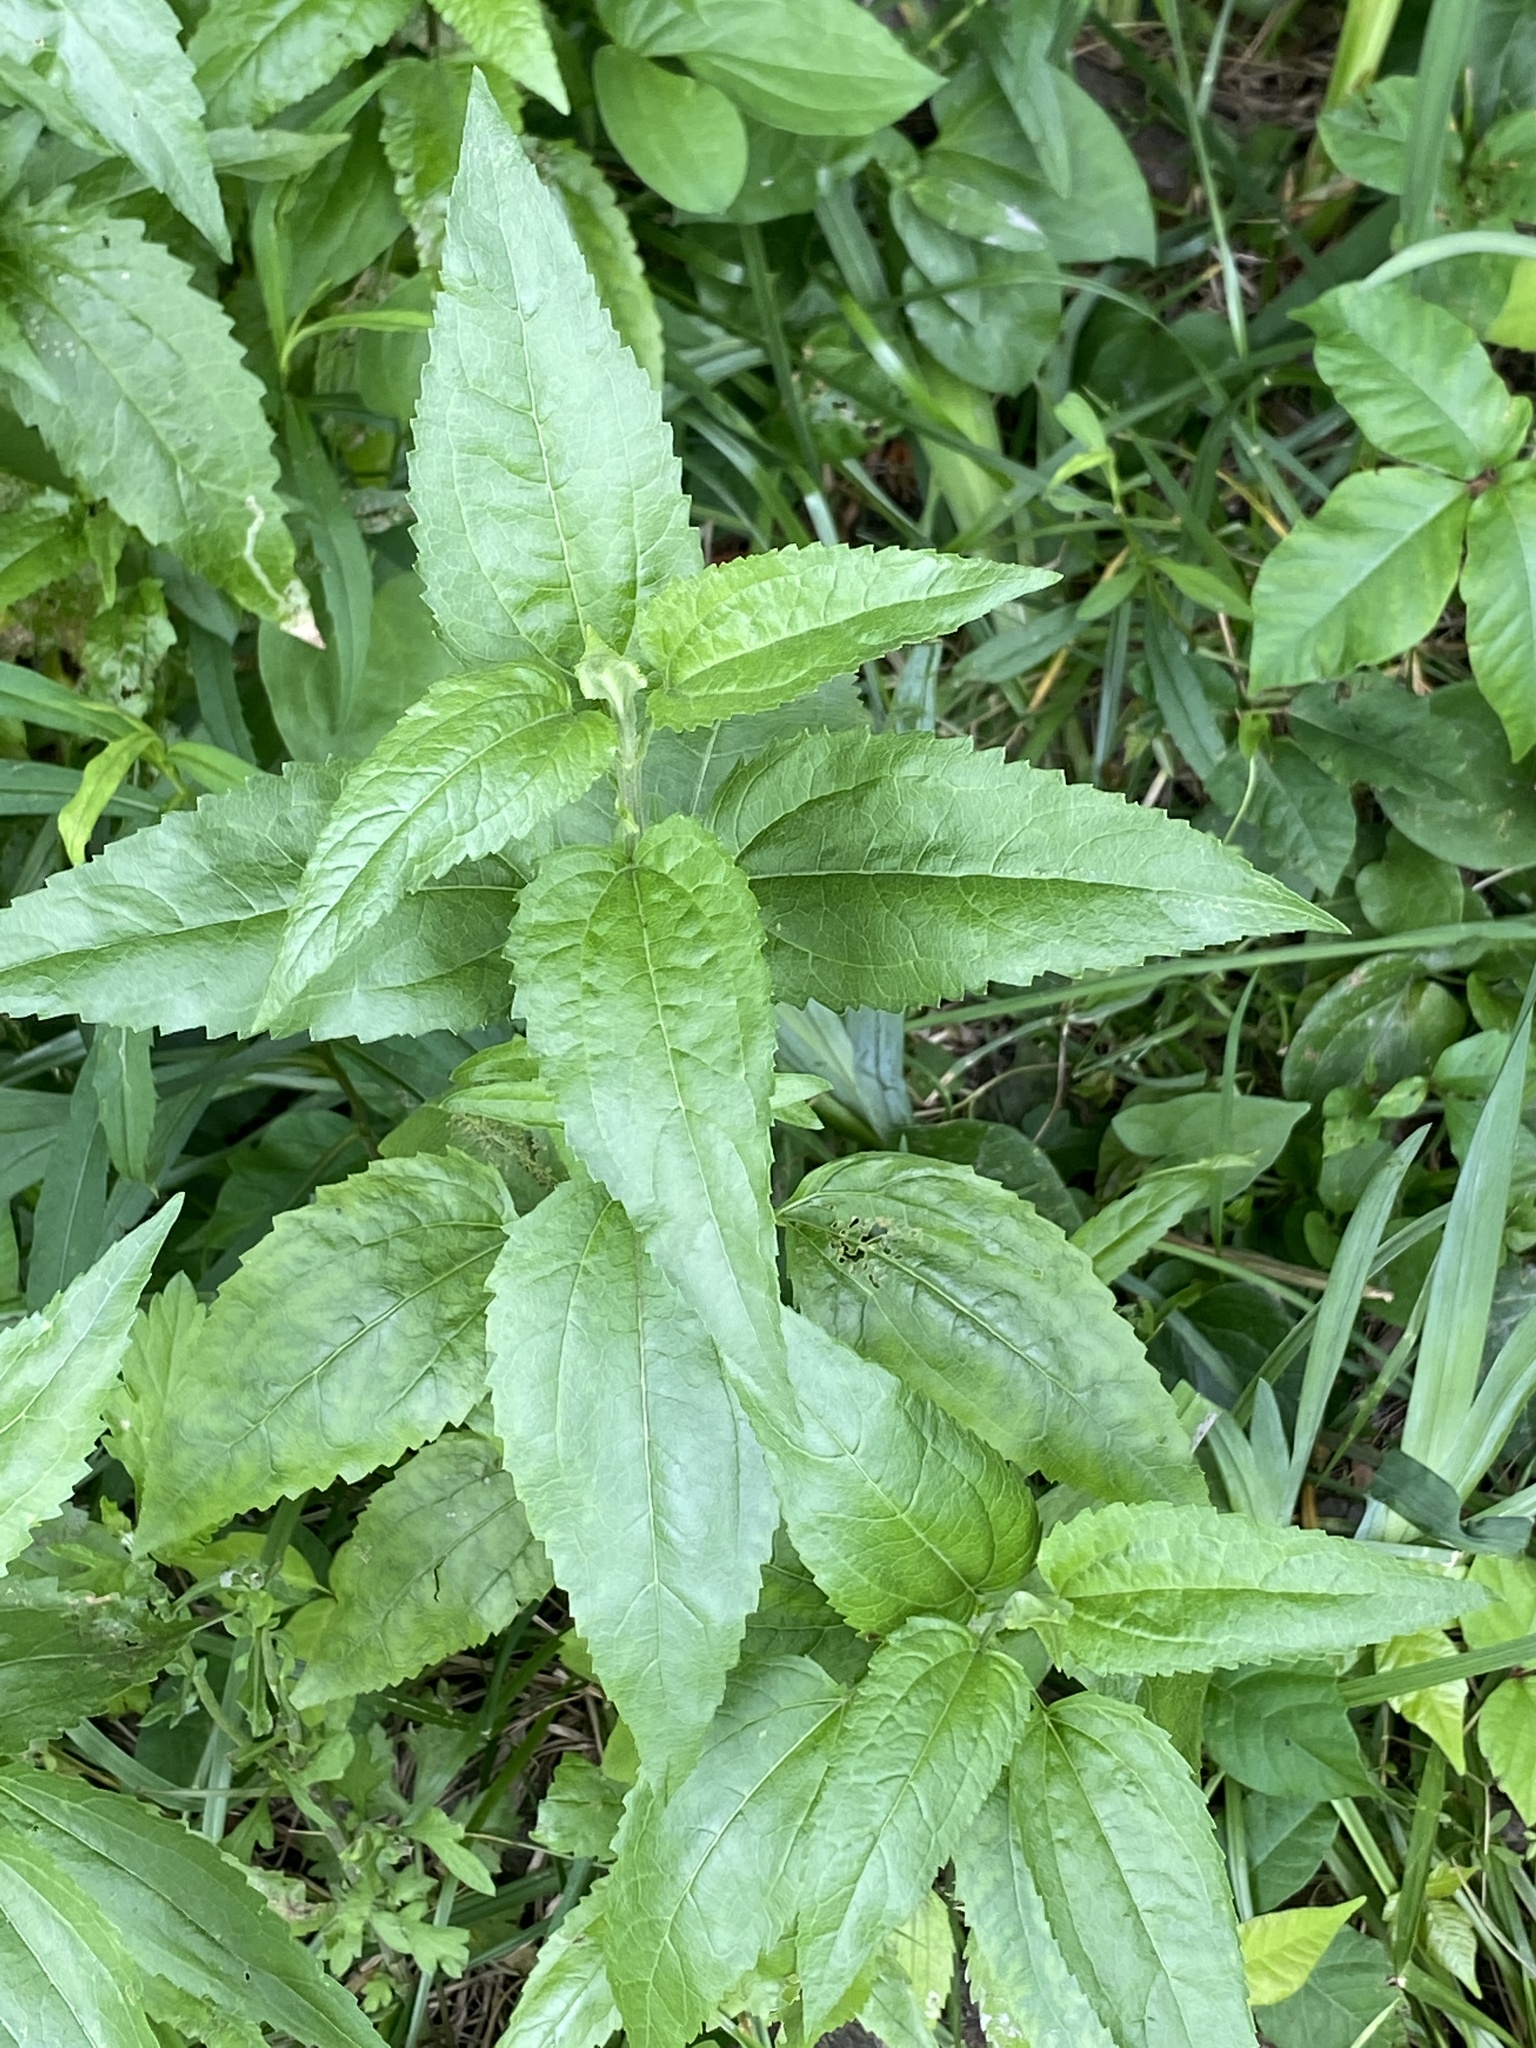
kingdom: Plantae
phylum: Tracheophyta
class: Magnoliopsida
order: Asterales
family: Asteraceae
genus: Eupatorium
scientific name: Eupatorium serotinum
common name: Late boneset
